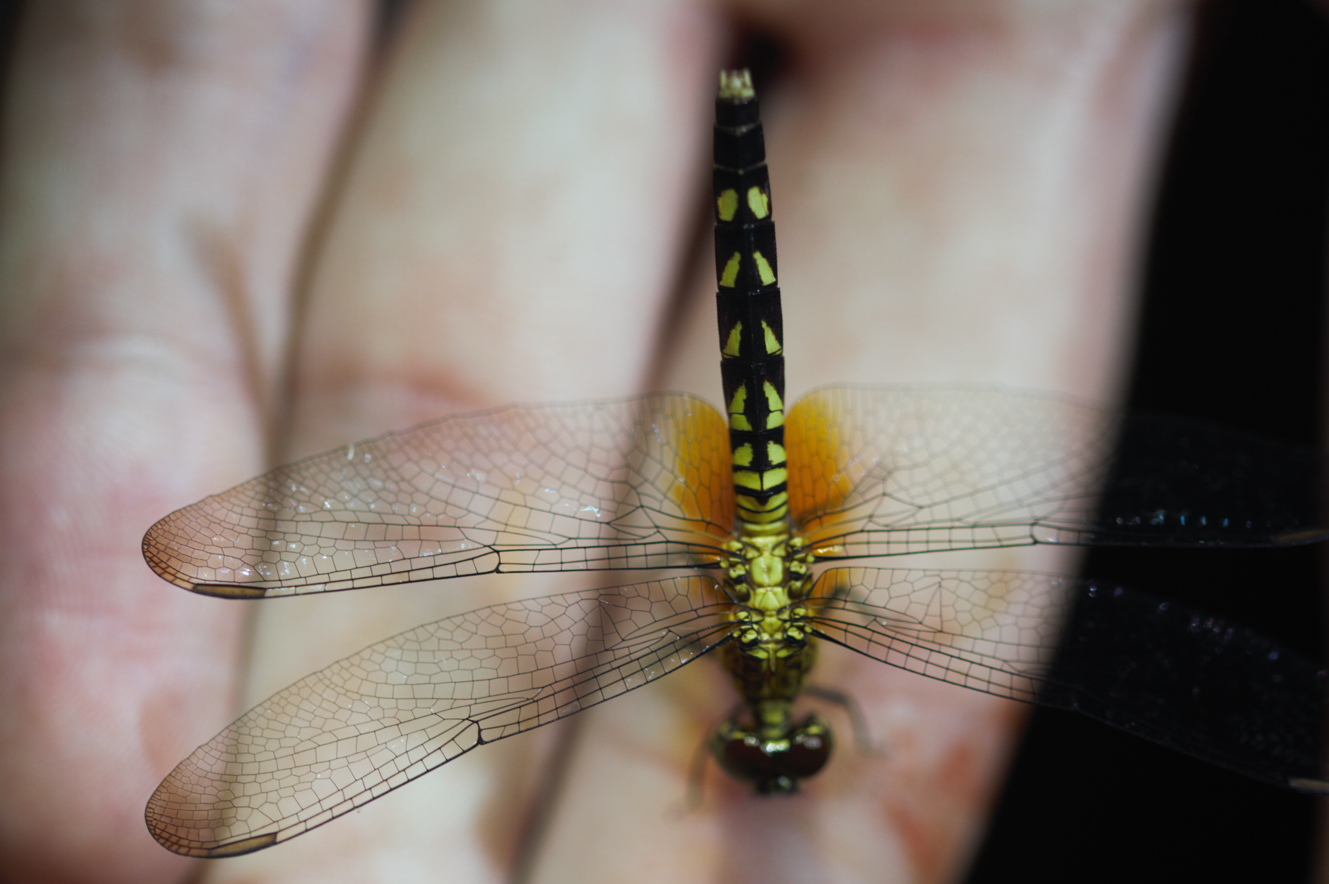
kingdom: Animalia
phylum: Arthropoda
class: Insecta
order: Odonata
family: Libellulidae
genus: Erythrodiplax
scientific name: Erythrodiplax unimaculata
